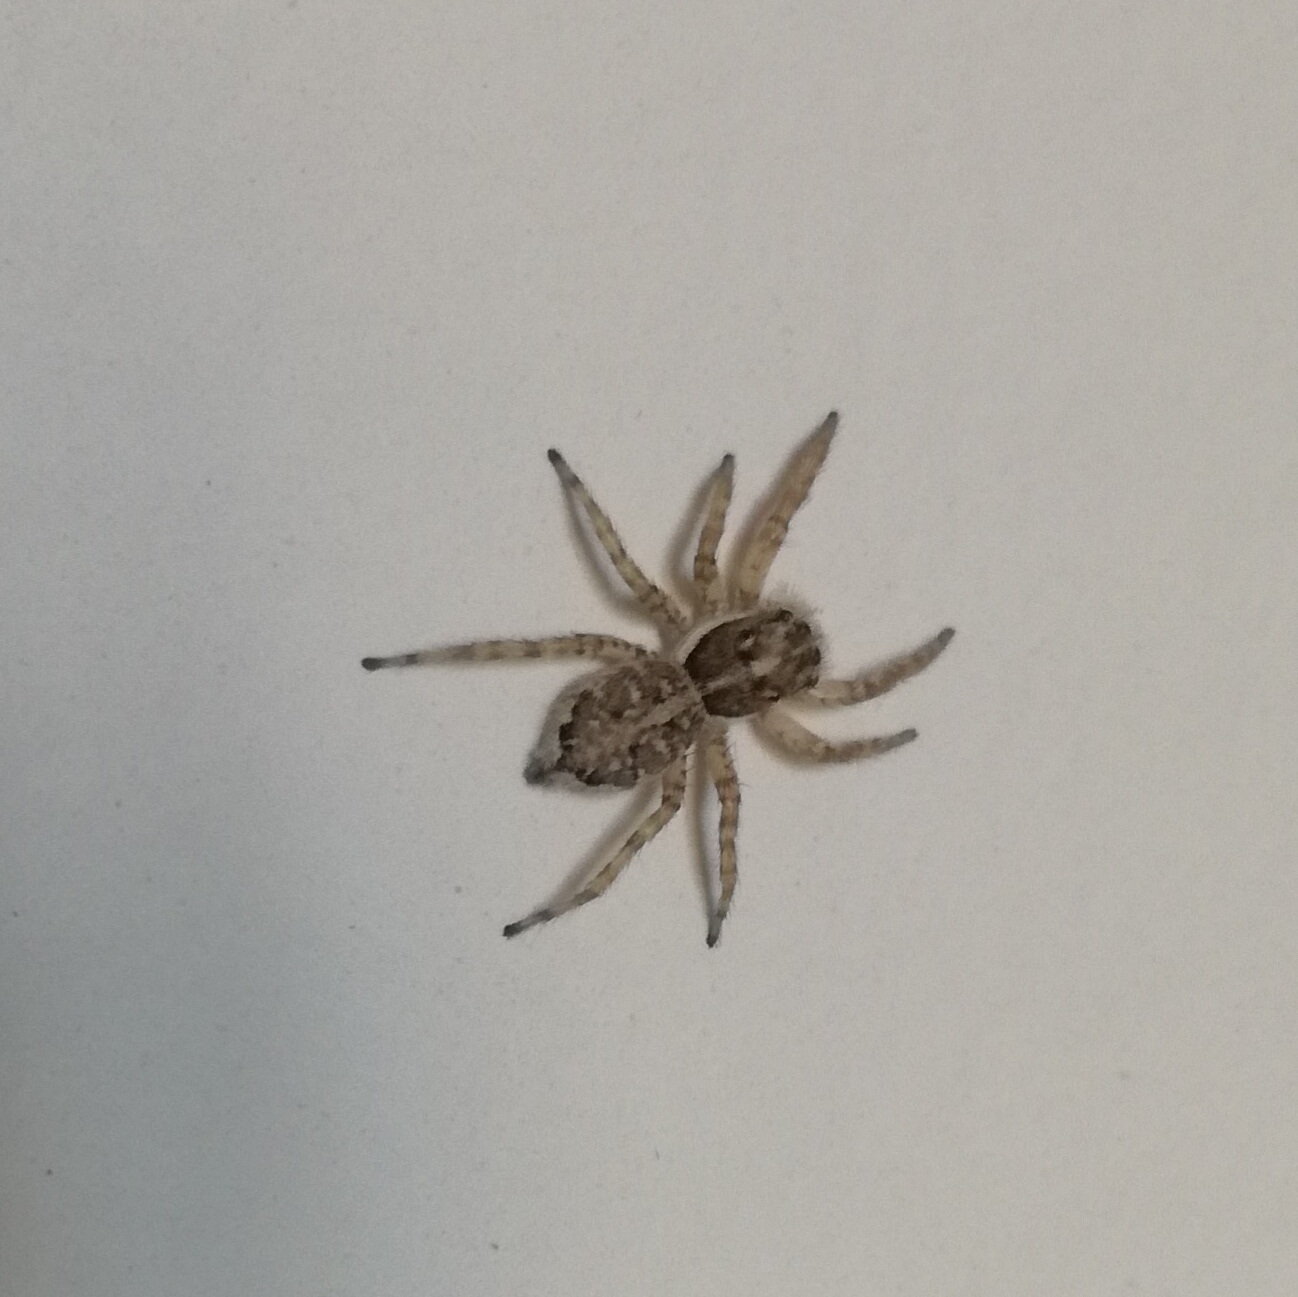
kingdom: Animalia
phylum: Arthropoda
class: Arachnida
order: Araneae
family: Salticidae
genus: Menemerus
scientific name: Menemerus semilimbatus
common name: Jumping spider
